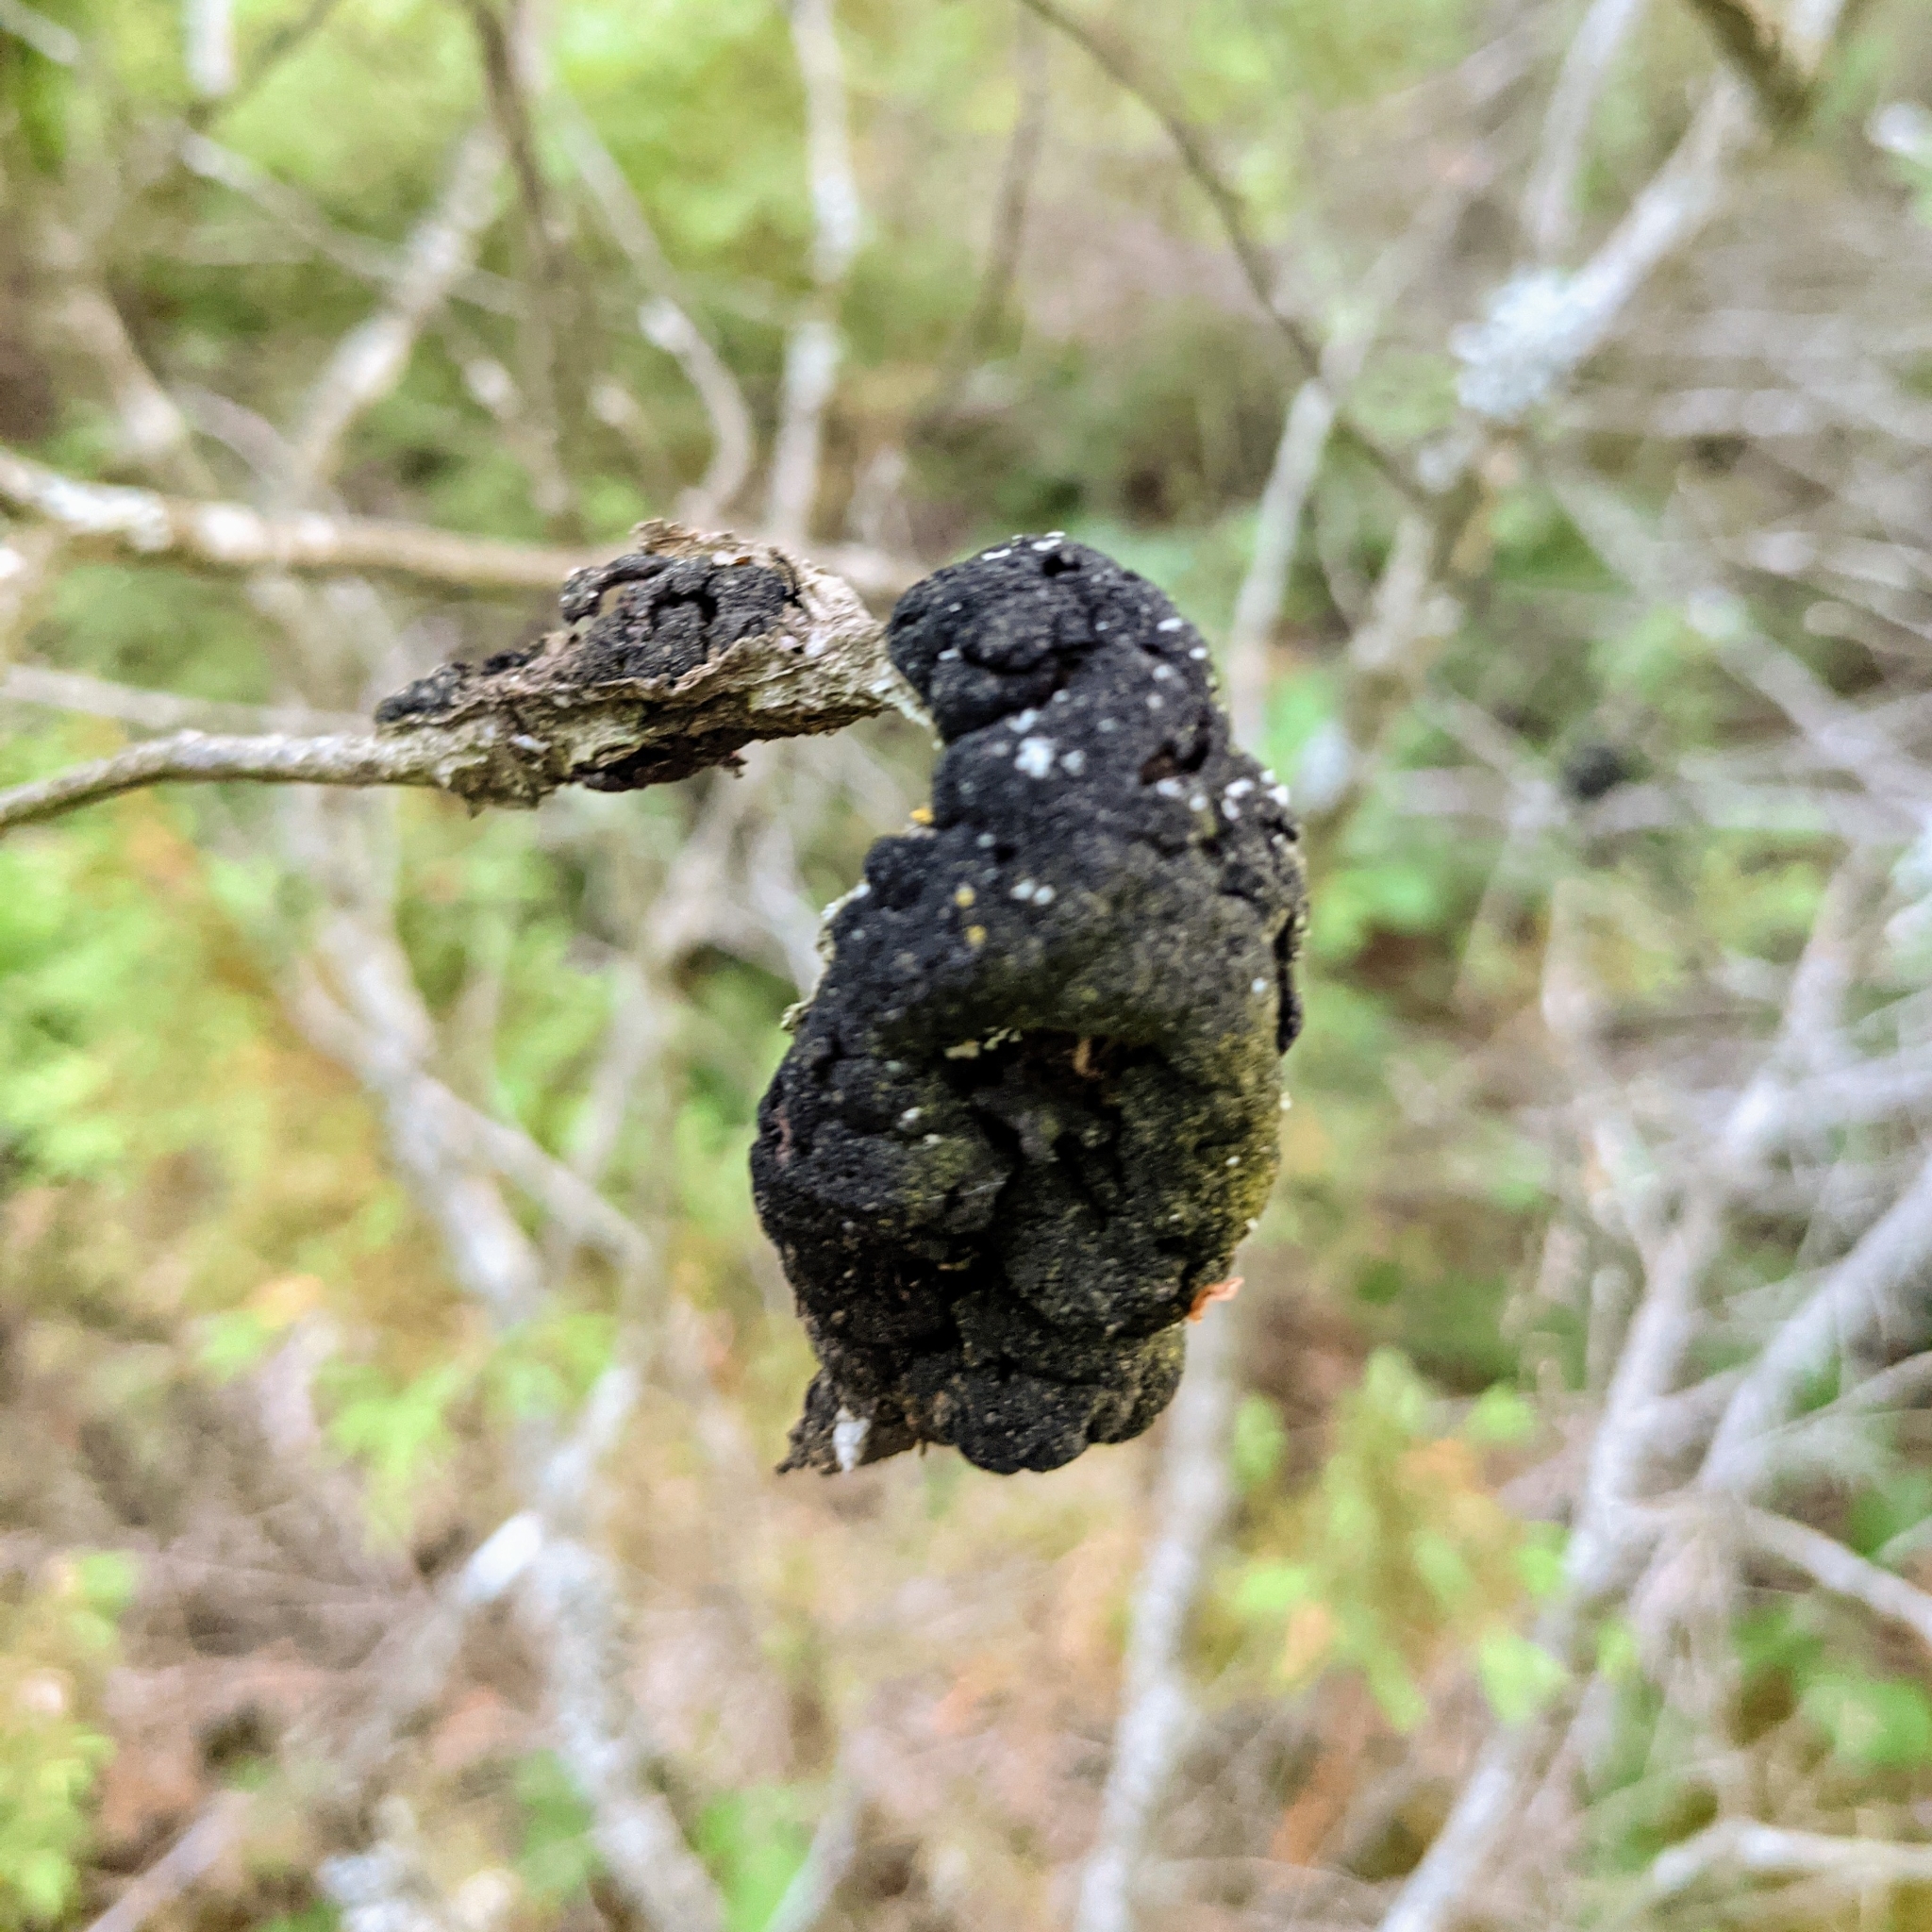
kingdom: Fungi
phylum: Ascomycota
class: Dothideomycetes
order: Venturiales
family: Venturiaceae
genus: Apiosporina
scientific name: Apiosporina morbosa
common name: Black knot
